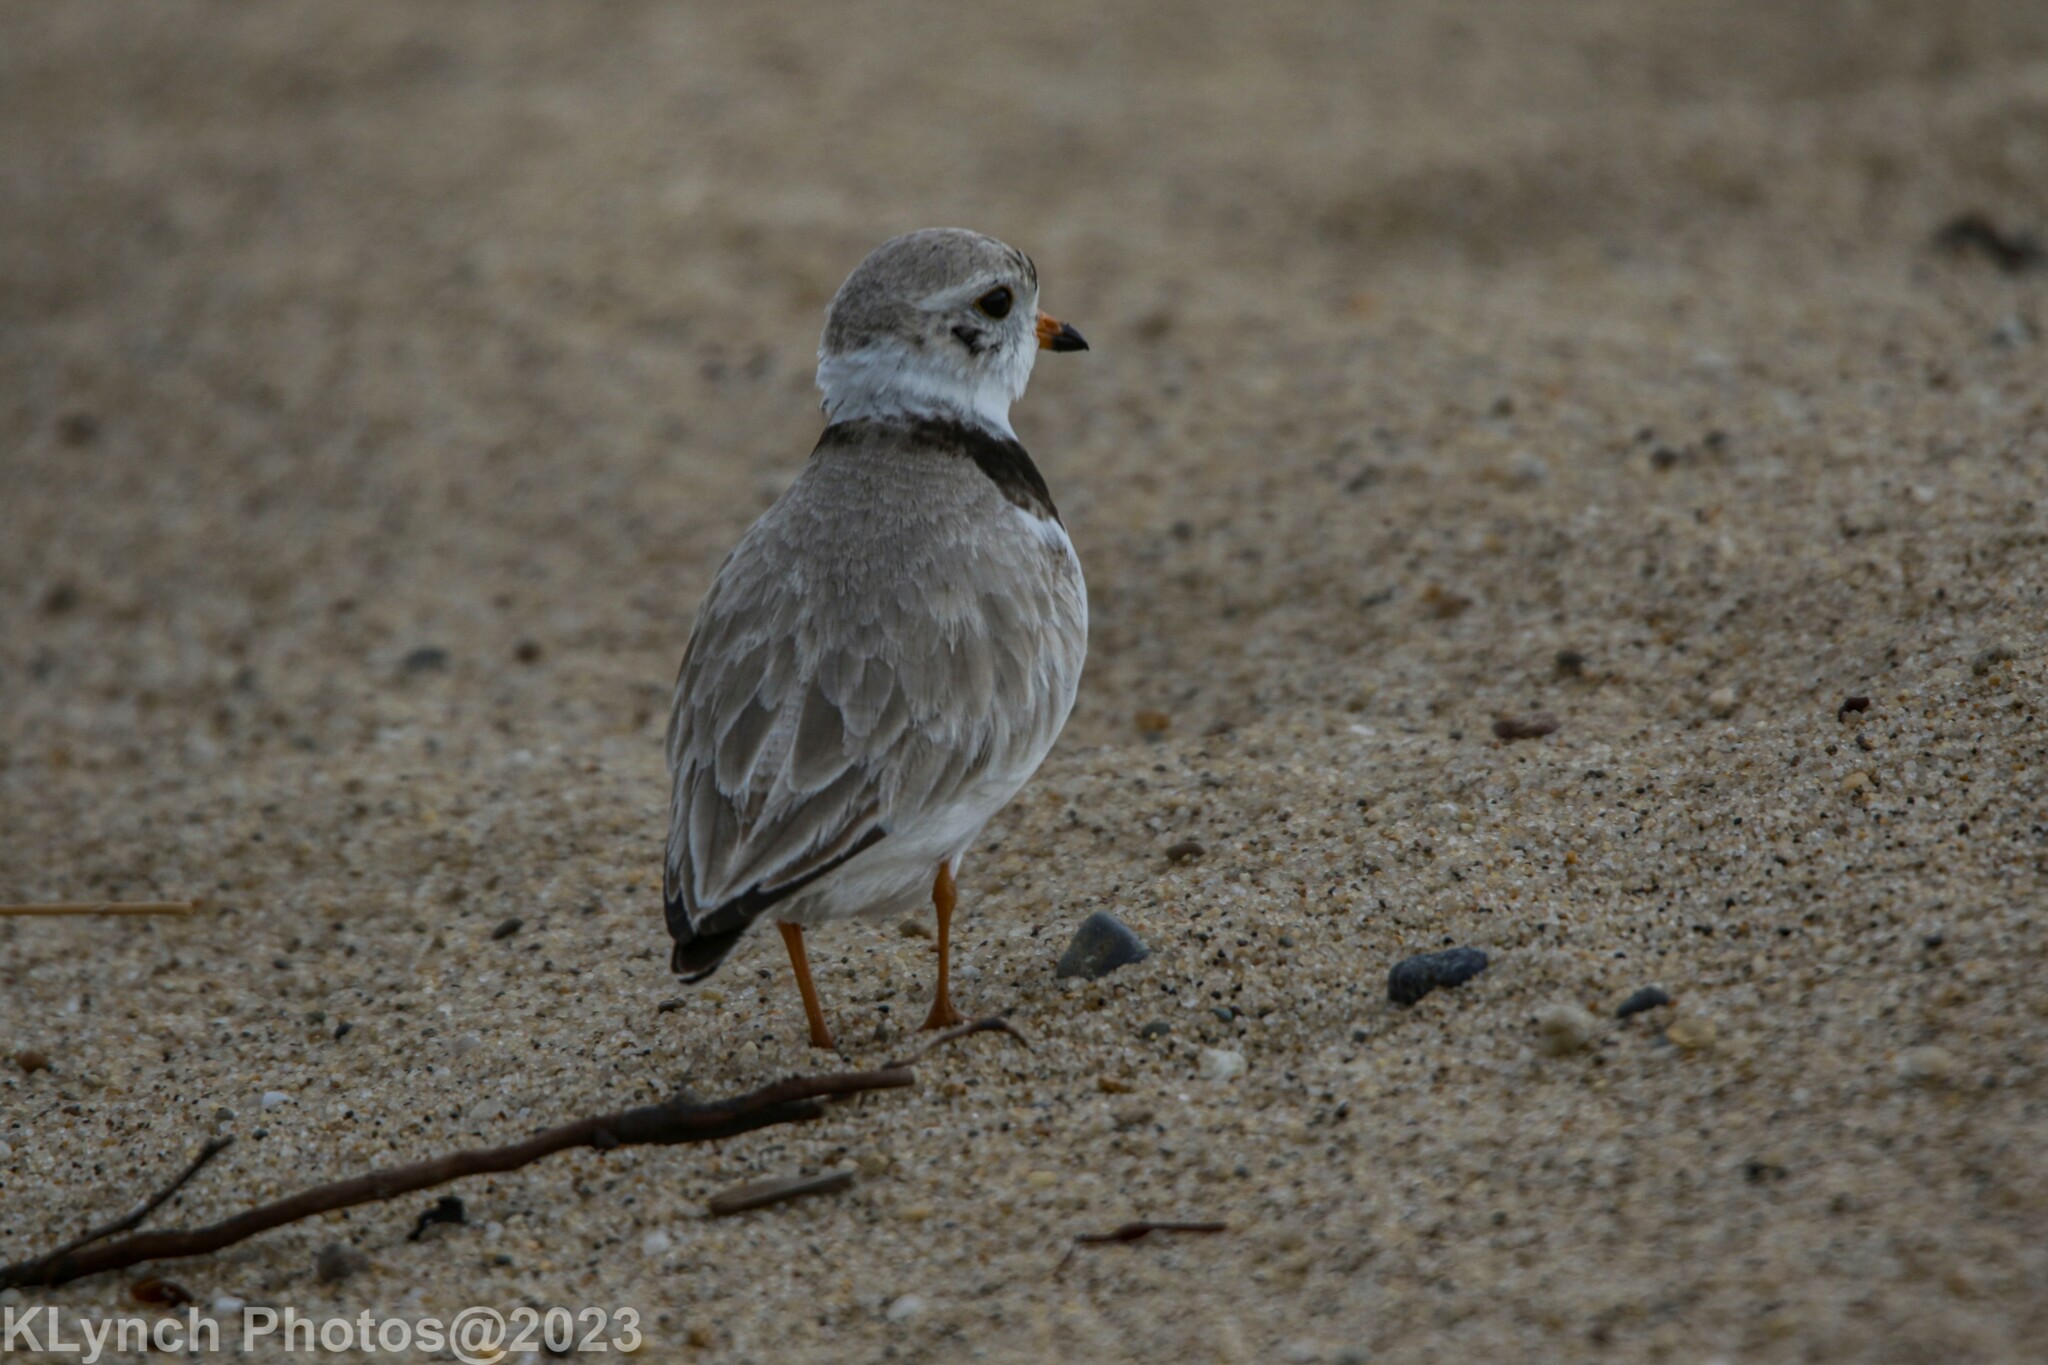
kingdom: Animalia
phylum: Chordata
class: Aves
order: Charadriiformes
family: Charadriidae
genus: Charadrius
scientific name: Charadrius melodus
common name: Piping plover
